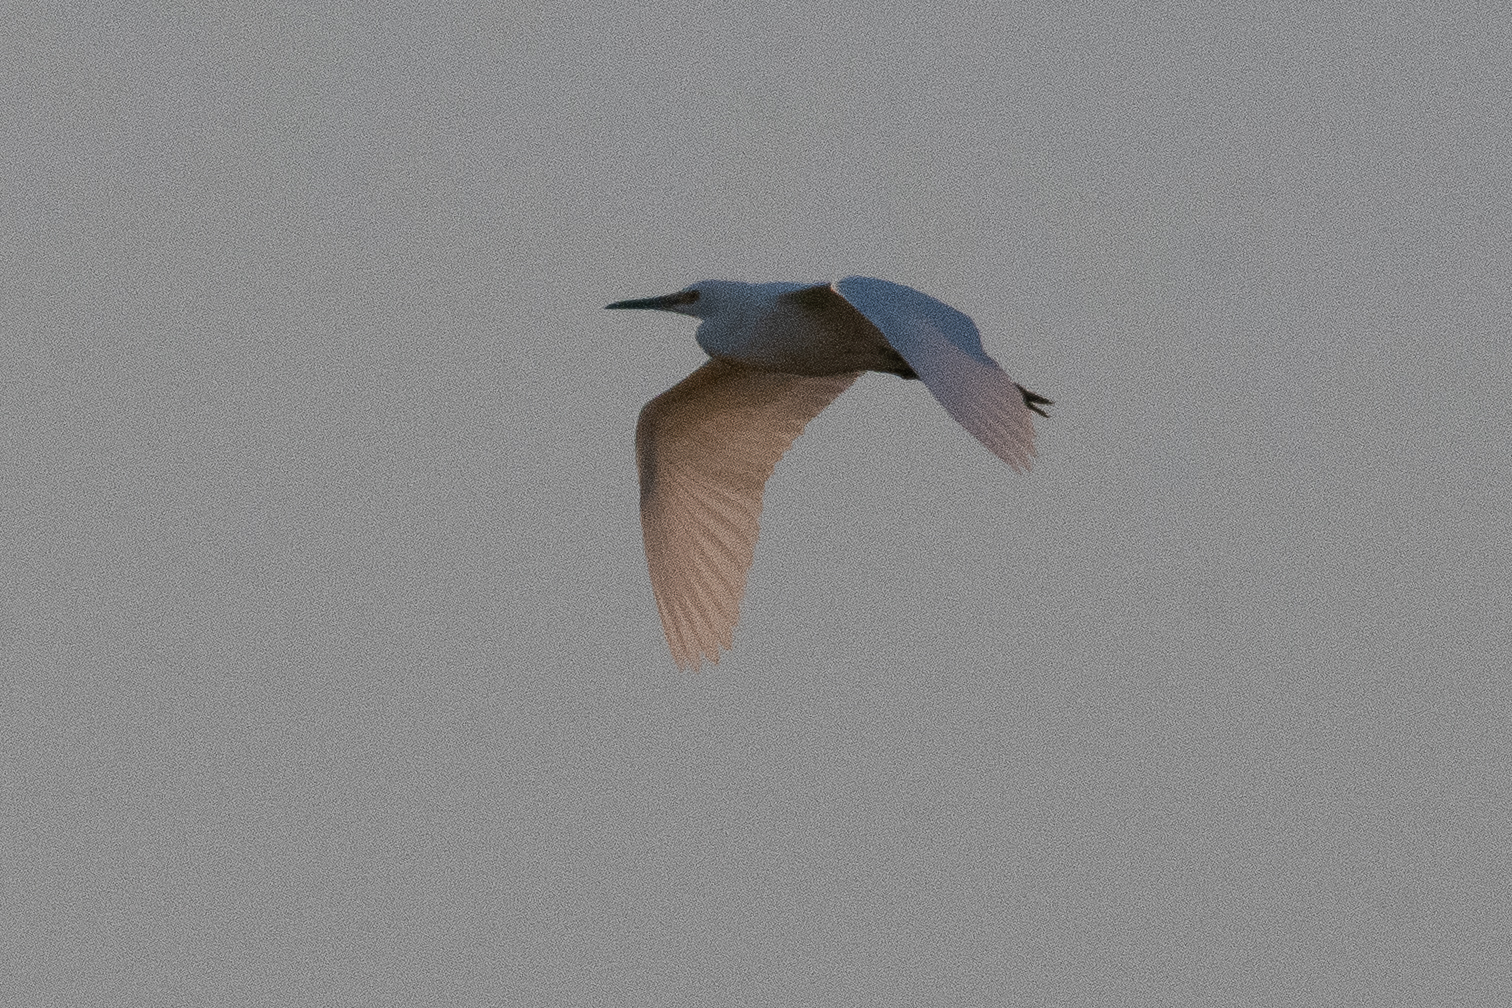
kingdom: Animalia
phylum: Chordata
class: Aves
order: Pelecaniformes
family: Ardeidae
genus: Egretta
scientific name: Egretta thula
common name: Snowy egret
